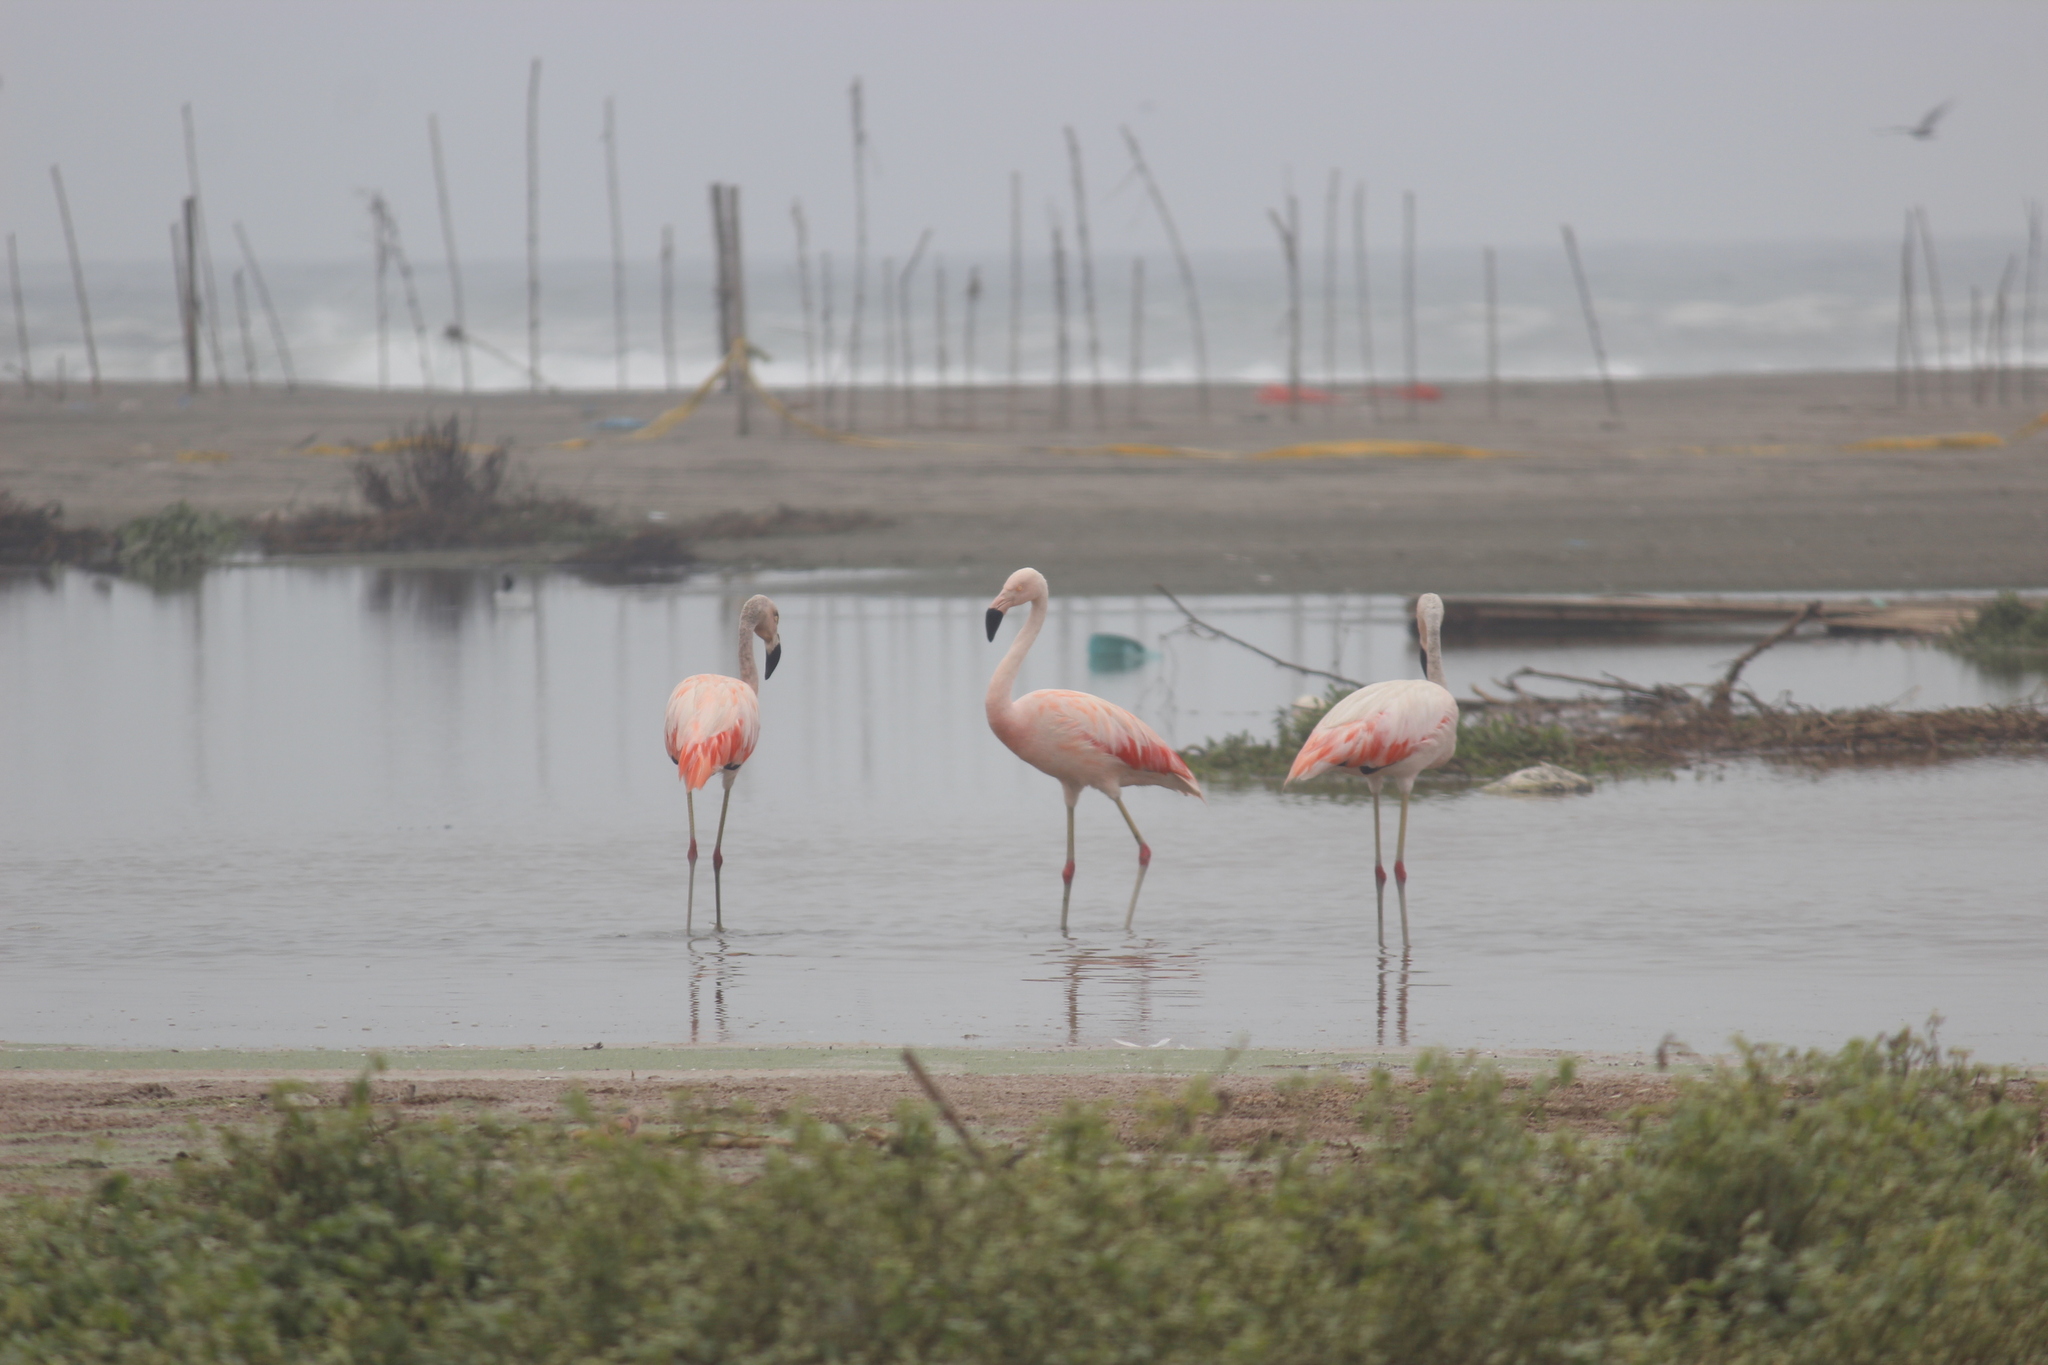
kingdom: Animalia
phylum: Chordata
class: Aves
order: Phoenicopteriformes
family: Phoenicopteridae
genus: Phoenicopterus
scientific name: Phoenicopterus chilensis
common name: Chilean flamingo
